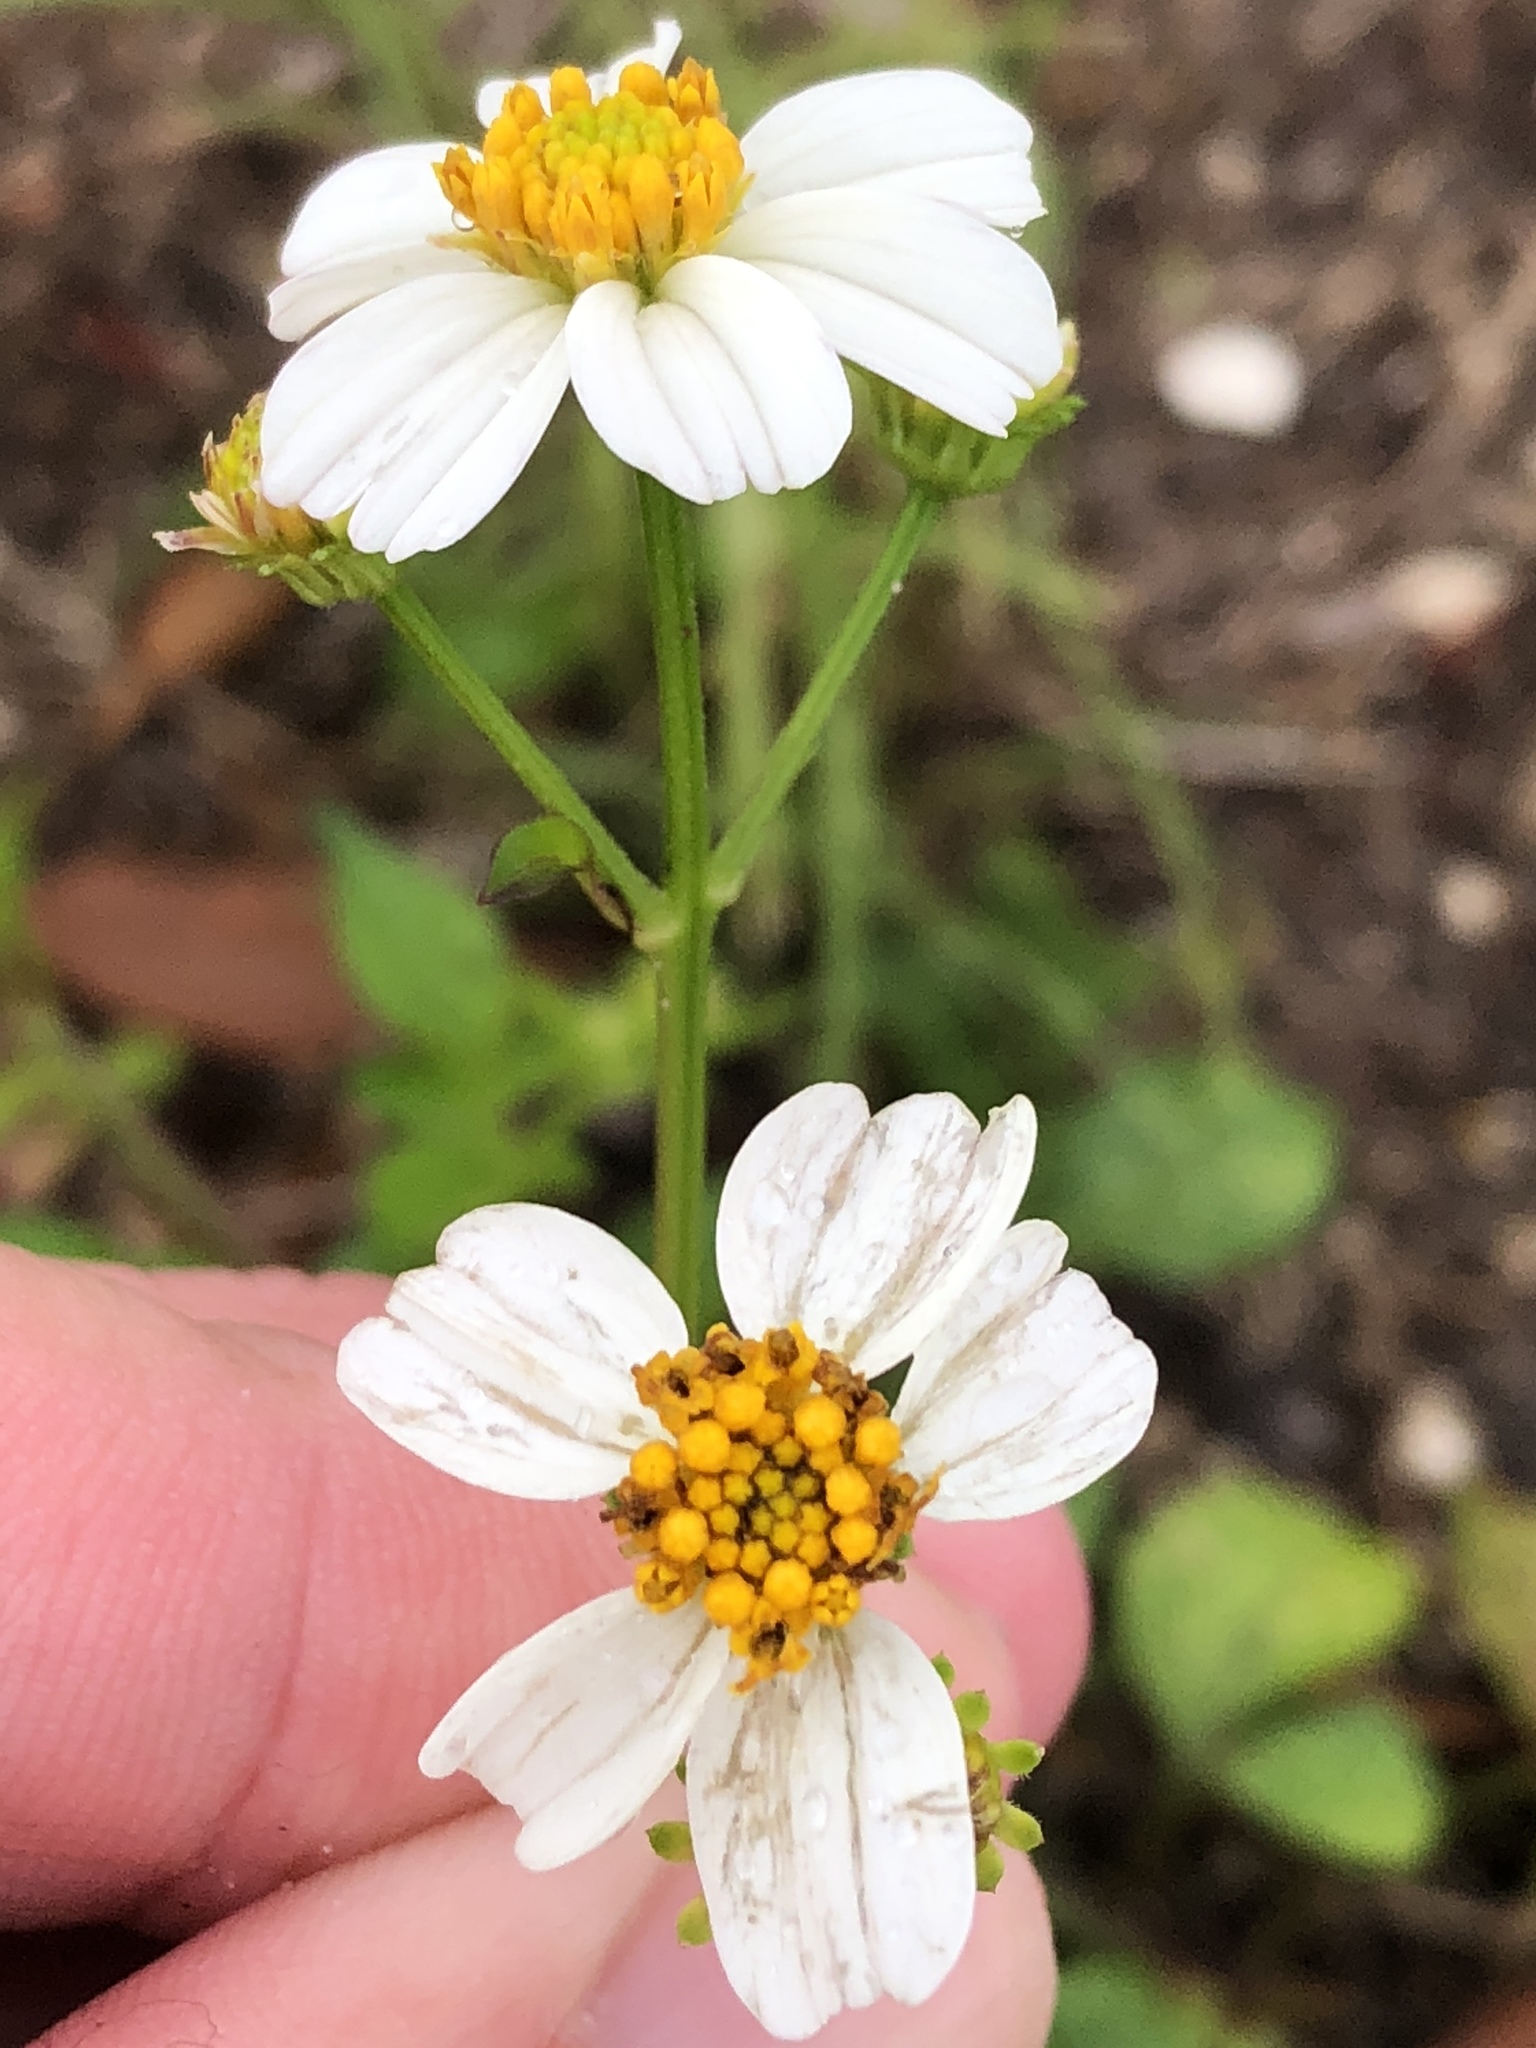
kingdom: Plantae
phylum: Tracheophyta
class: Magnoliopsida
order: Asterales
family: Asteraceae
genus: Bidens
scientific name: Bidens alba
